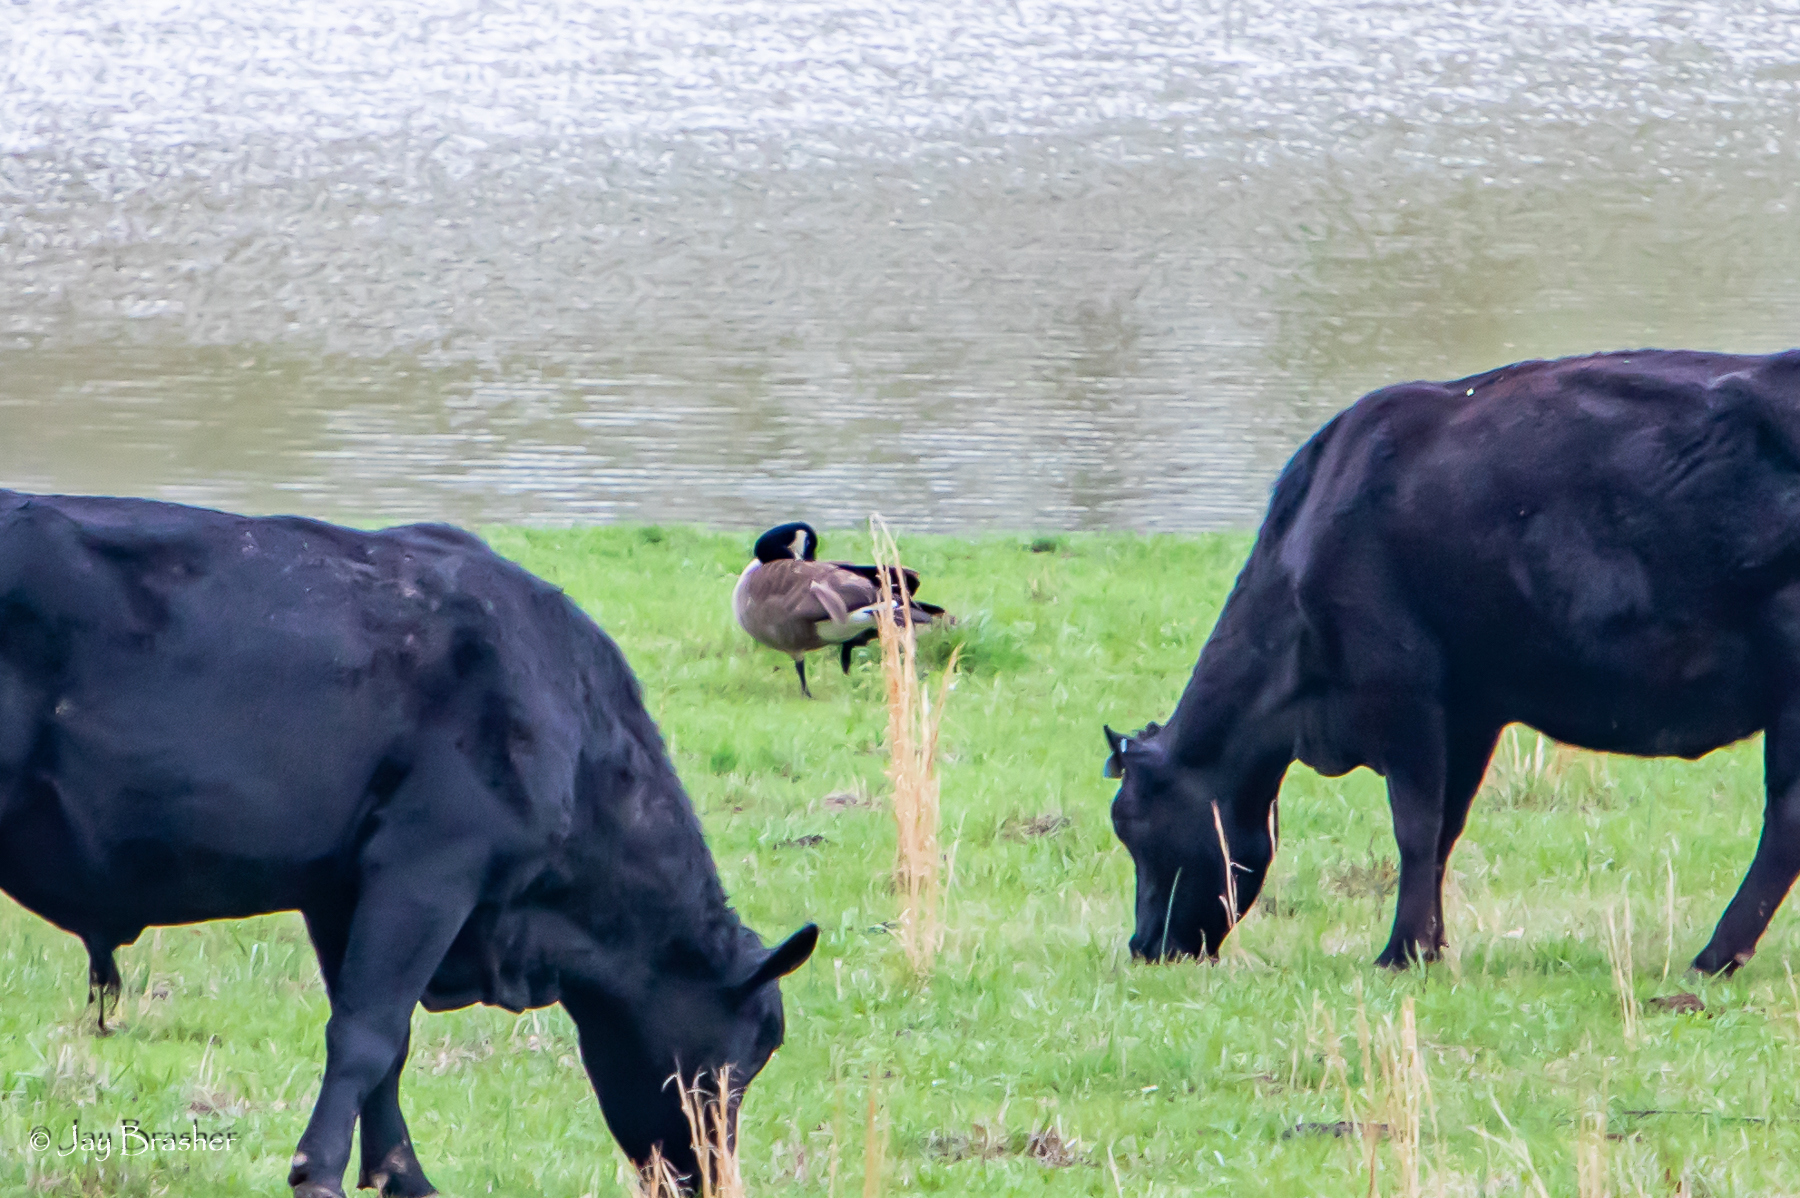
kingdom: Animalia
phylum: Chordata
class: Aves
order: Anseriformes
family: Anatidae
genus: Branta
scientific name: Branta canadensis
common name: Canada goose
